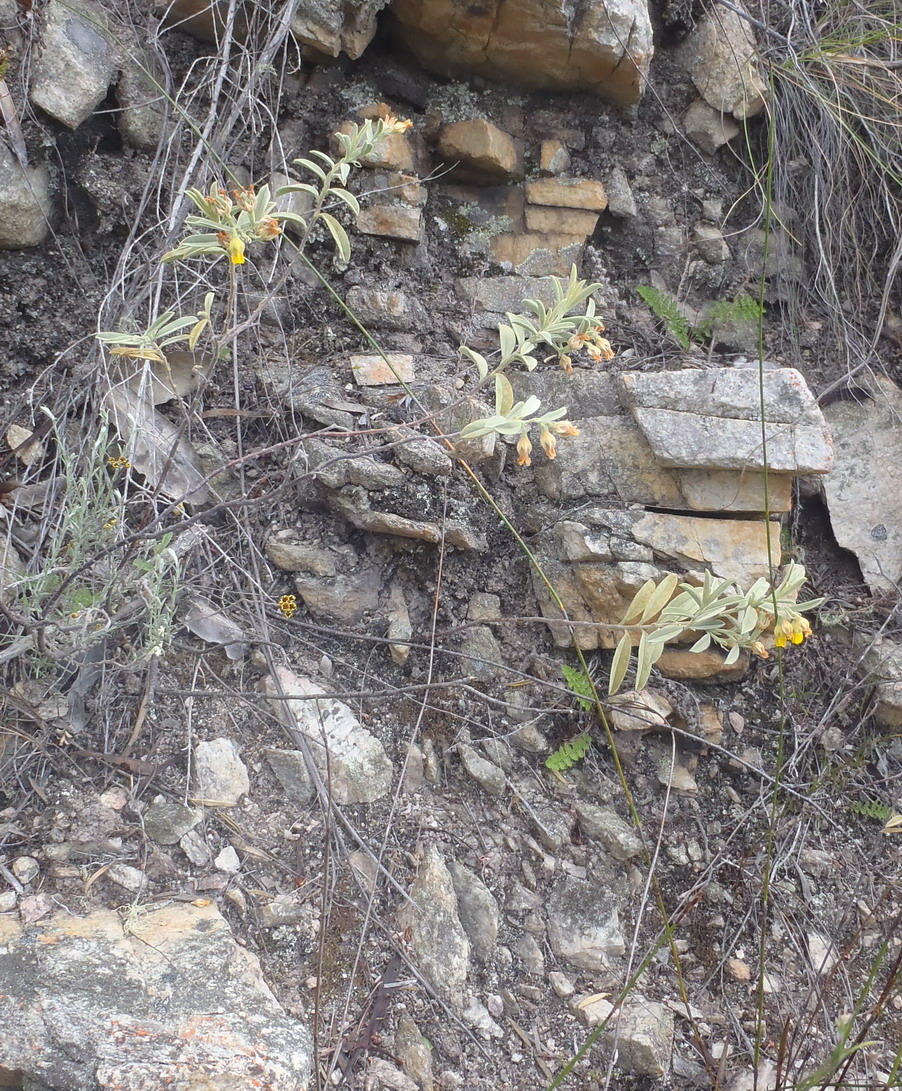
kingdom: Plantae
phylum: Tracheophyta
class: Magnoliopsida
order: Malvales
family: Malvaceae
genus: Hermannia
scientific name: Hermannia velutina
